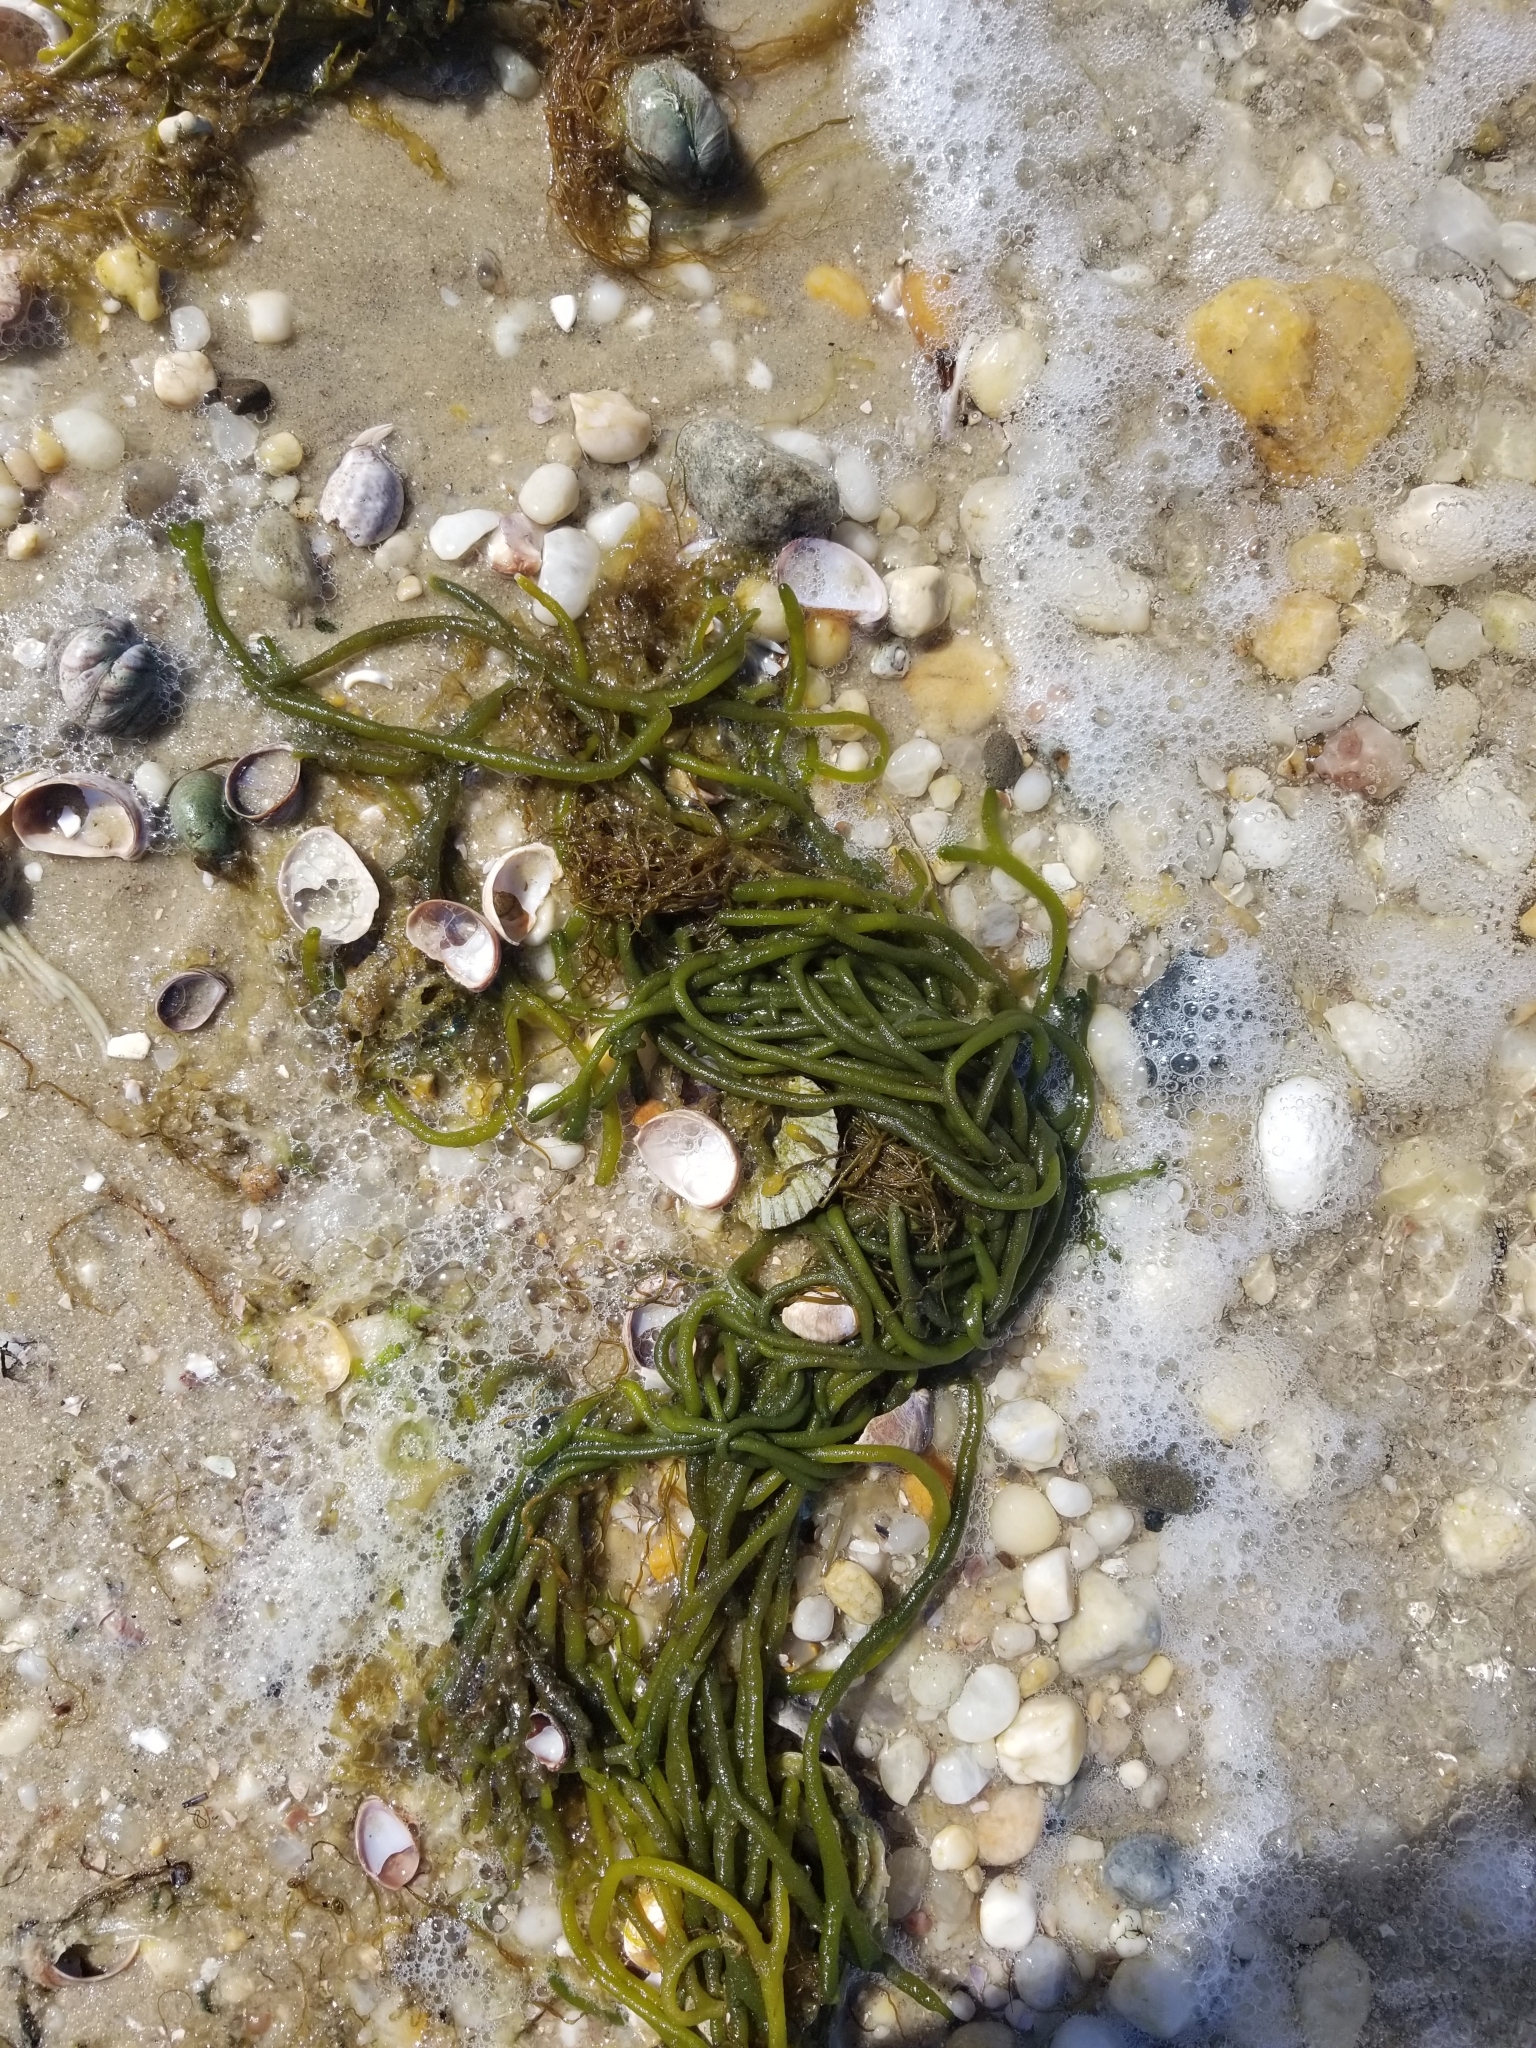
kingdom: Plantae
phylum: Chlorophyta
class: Ulvophyceae
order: Bryopsidales
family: Codiaceae
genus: Codium
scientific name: Codium fragile
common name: Dead man's fingers
